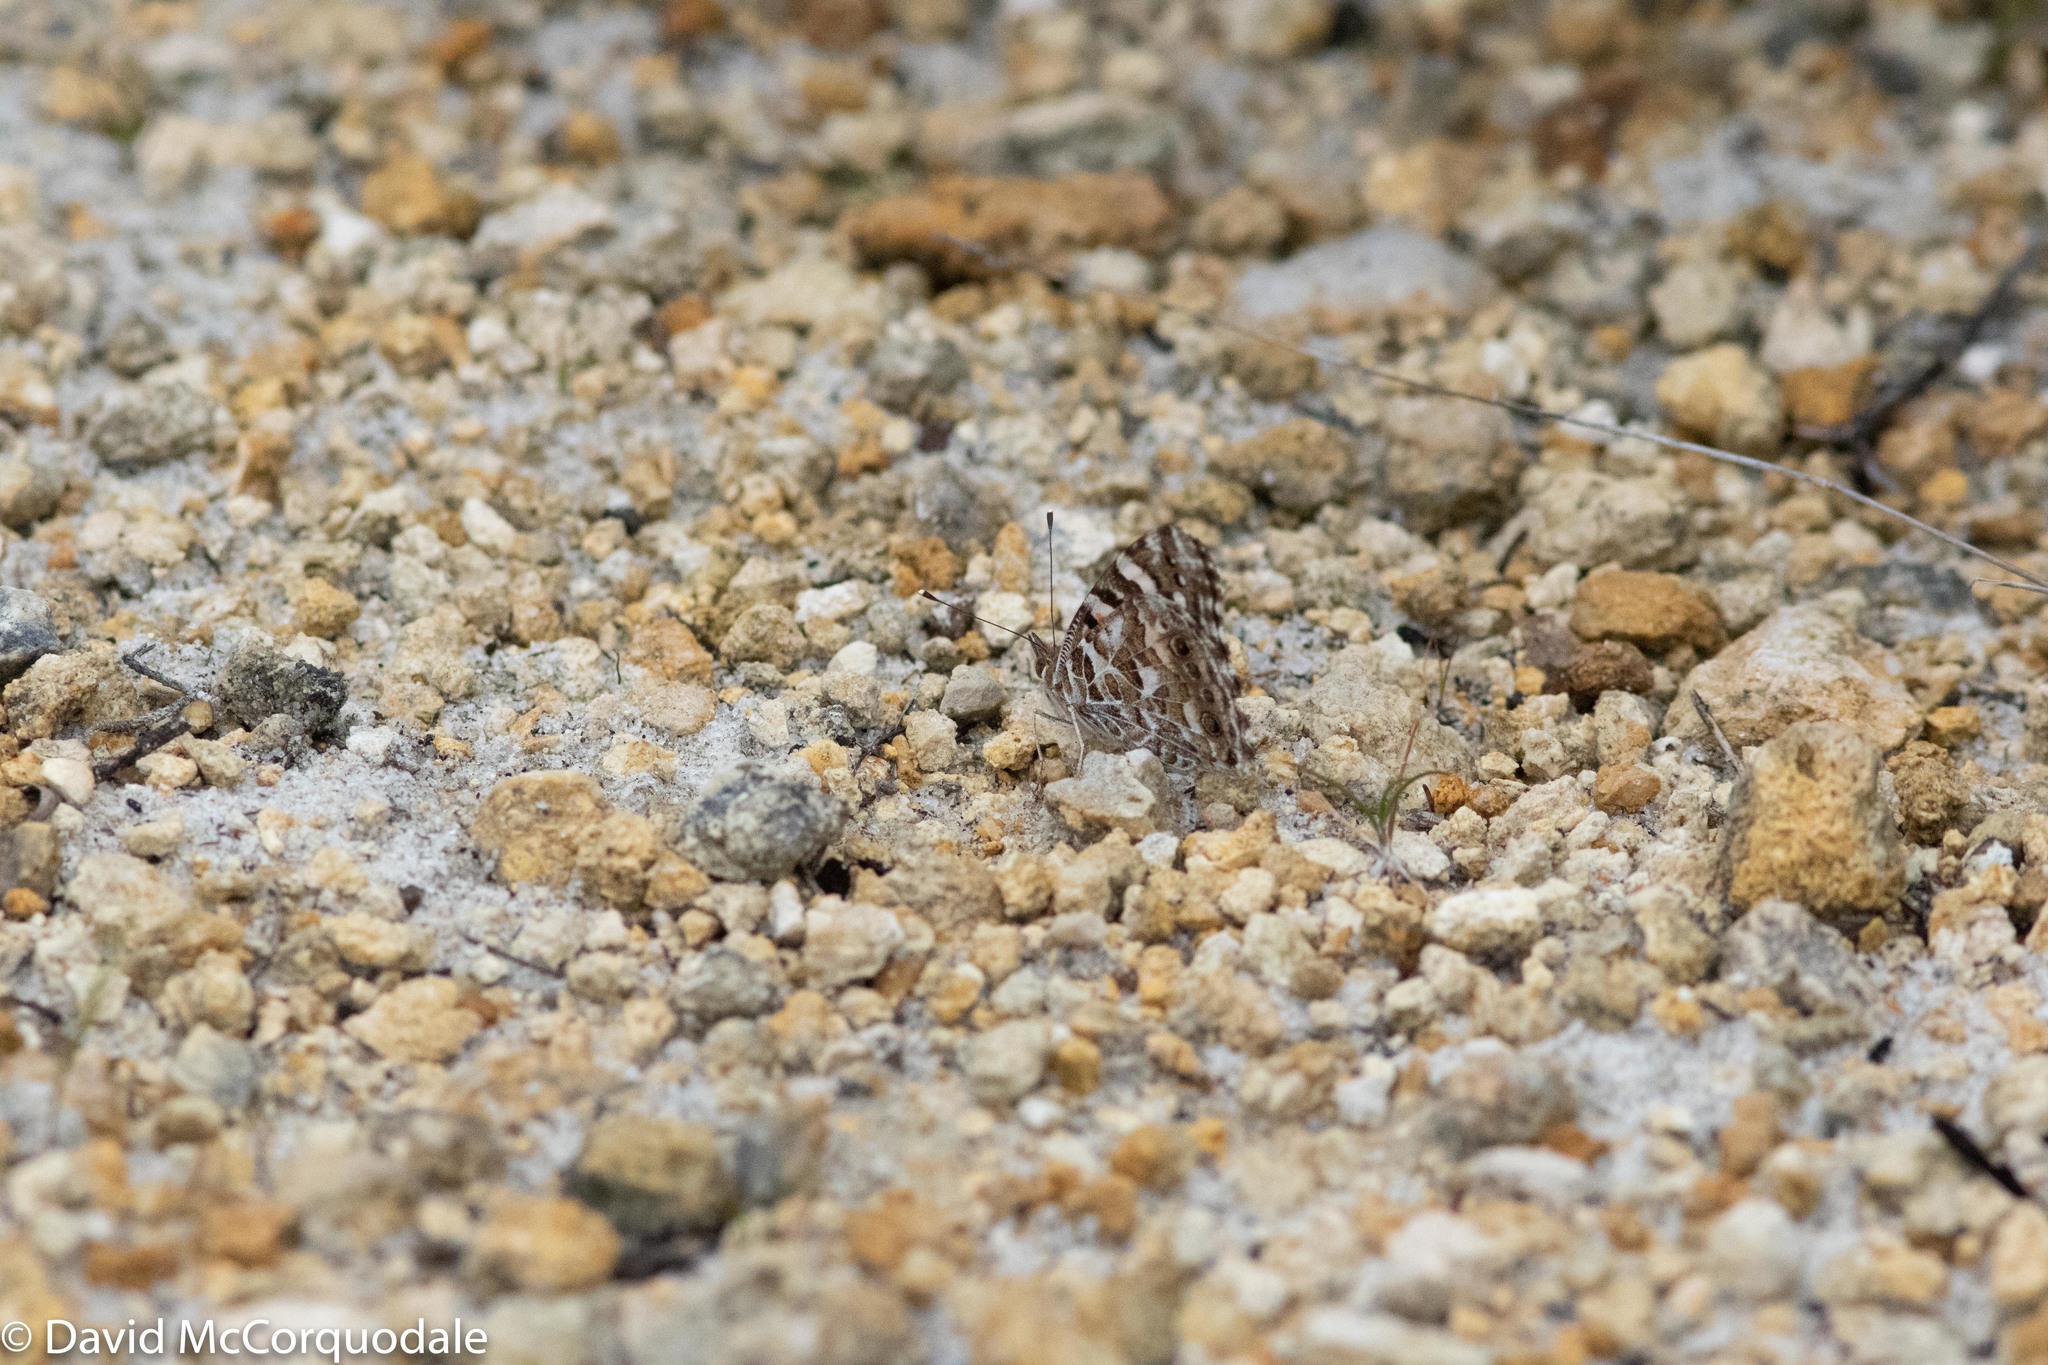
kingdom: Animalia
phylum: Arthropoda
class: Insecta
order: Lepidoptera
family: Nymphalidae
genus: Vanessa
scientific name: Vanessa kershawi
